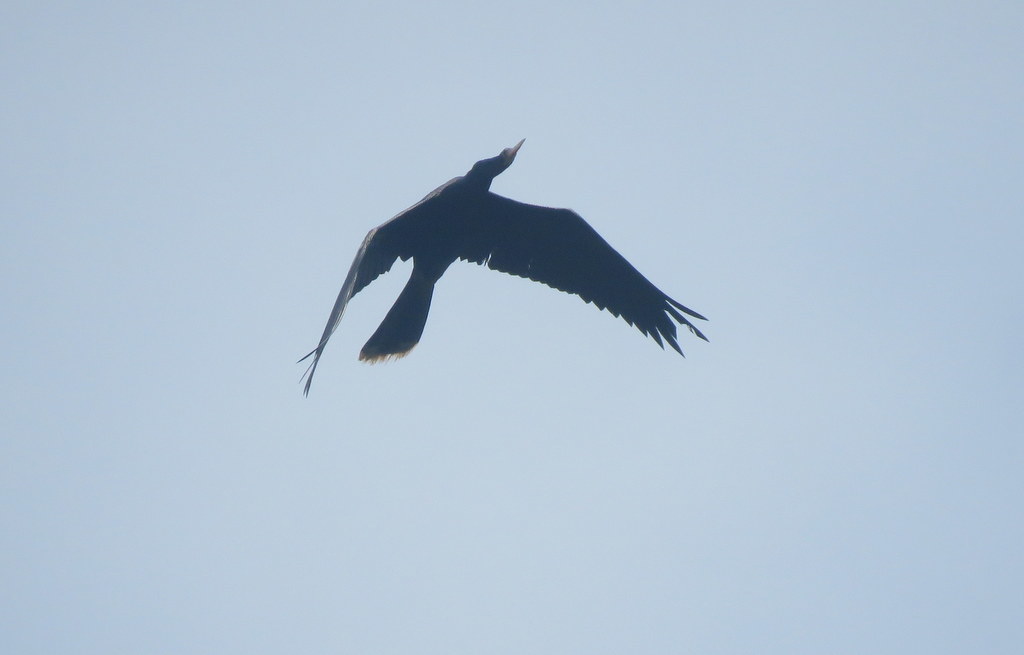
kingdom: Animalia
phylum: Chordata
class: Aves
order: Suliformes
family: Anhingidae
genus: Anhinga
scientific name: Anhinga anhinga
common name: Anhinga
